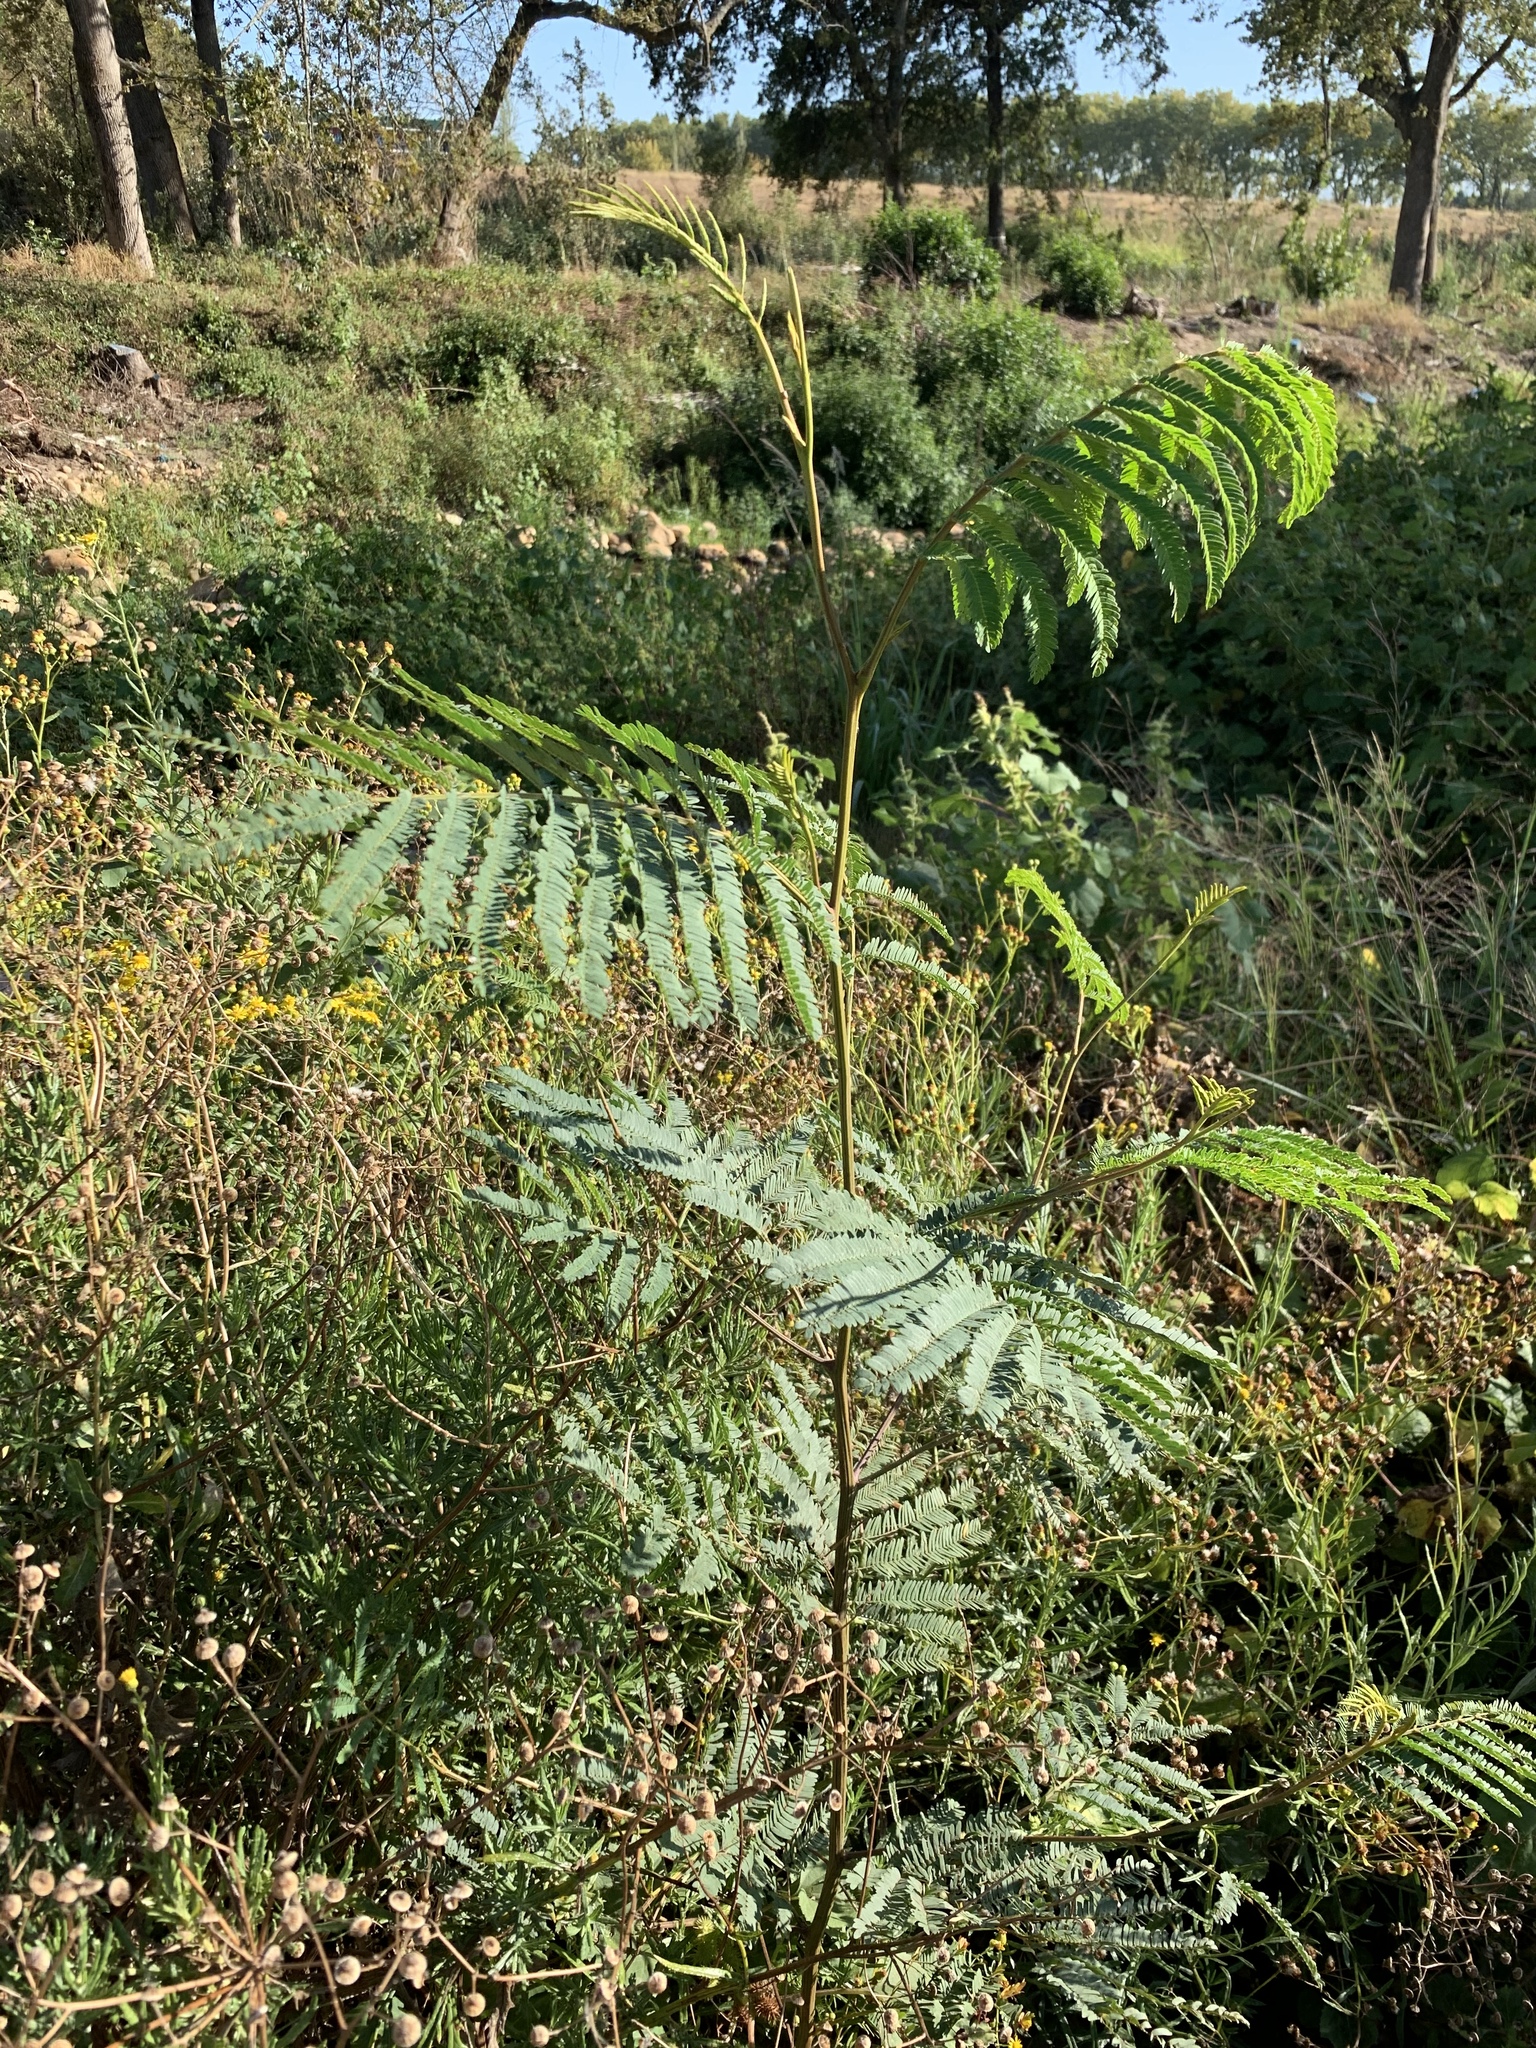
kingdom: Plantae
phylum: Tracheophyta
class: Magnoliopsida
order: Fabales
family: Fabaceae
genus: Paraserianthes
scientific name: Paraserianthes lophantha
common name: Plume albizia
